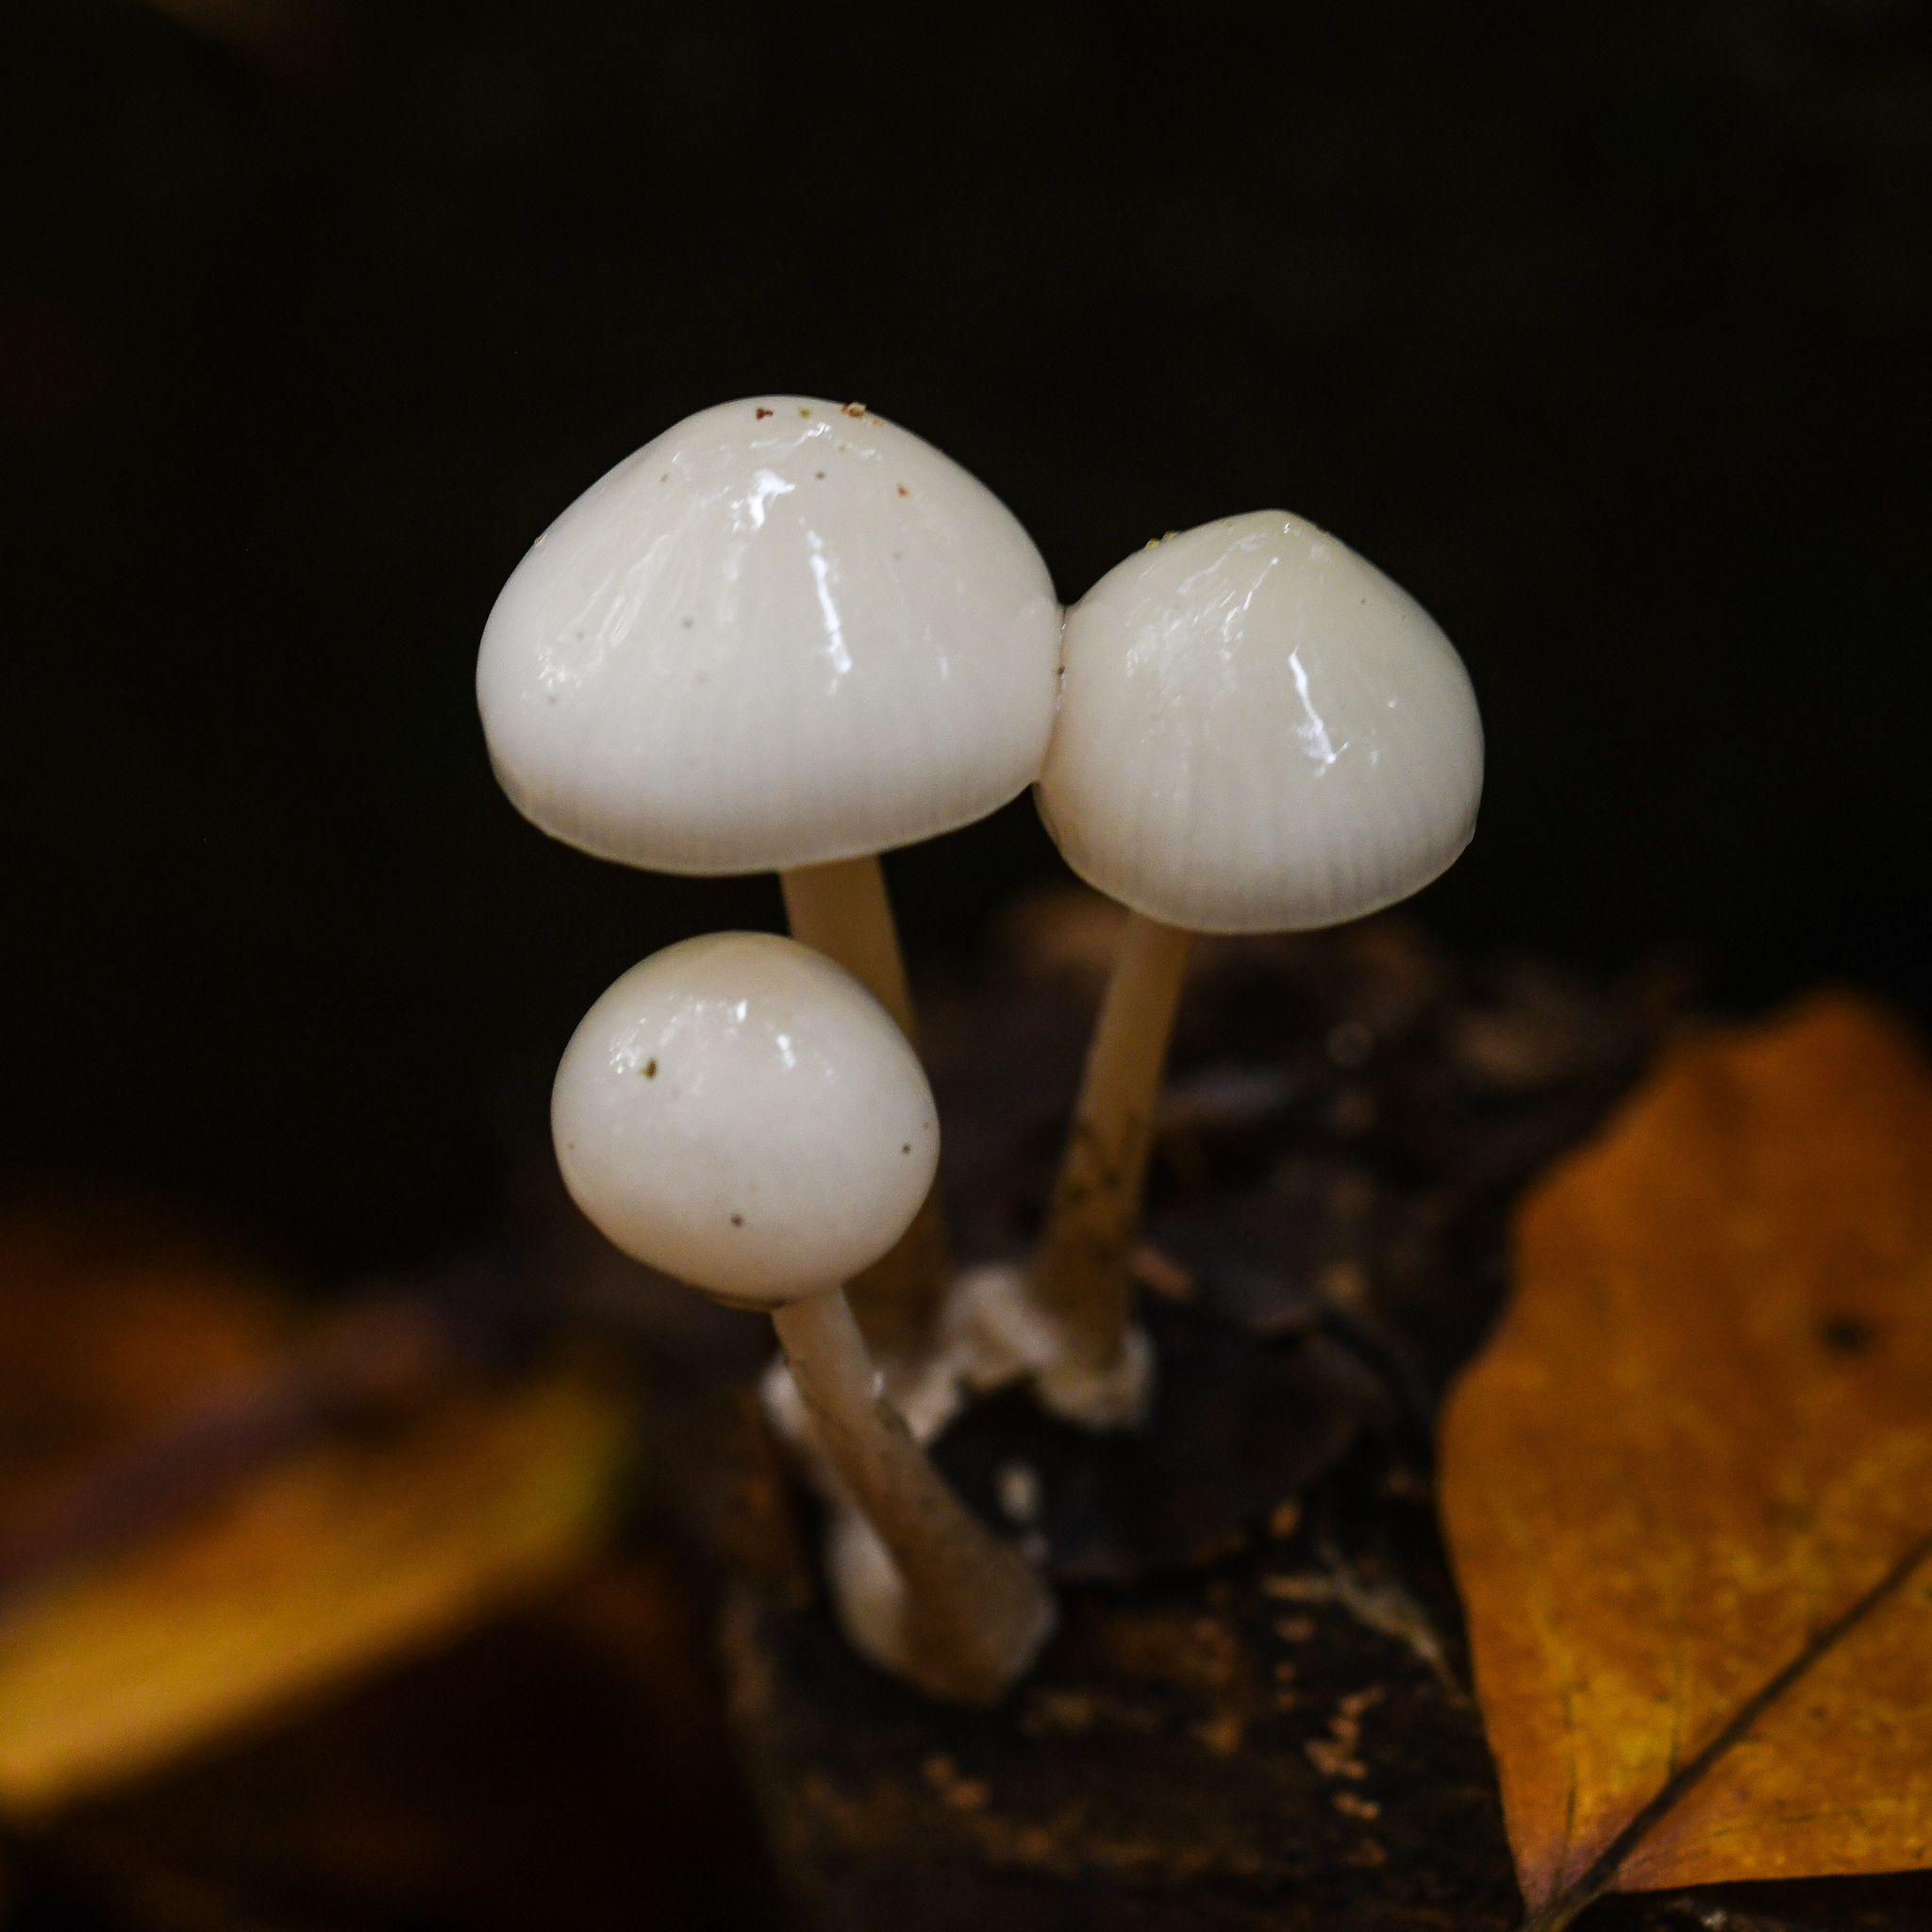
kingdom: Fungi
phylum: Basidiomycota
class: Agaricomycetes
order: Agaricales
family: Physalacriaceae
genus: Mucidula
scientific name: Mucidula mucida
